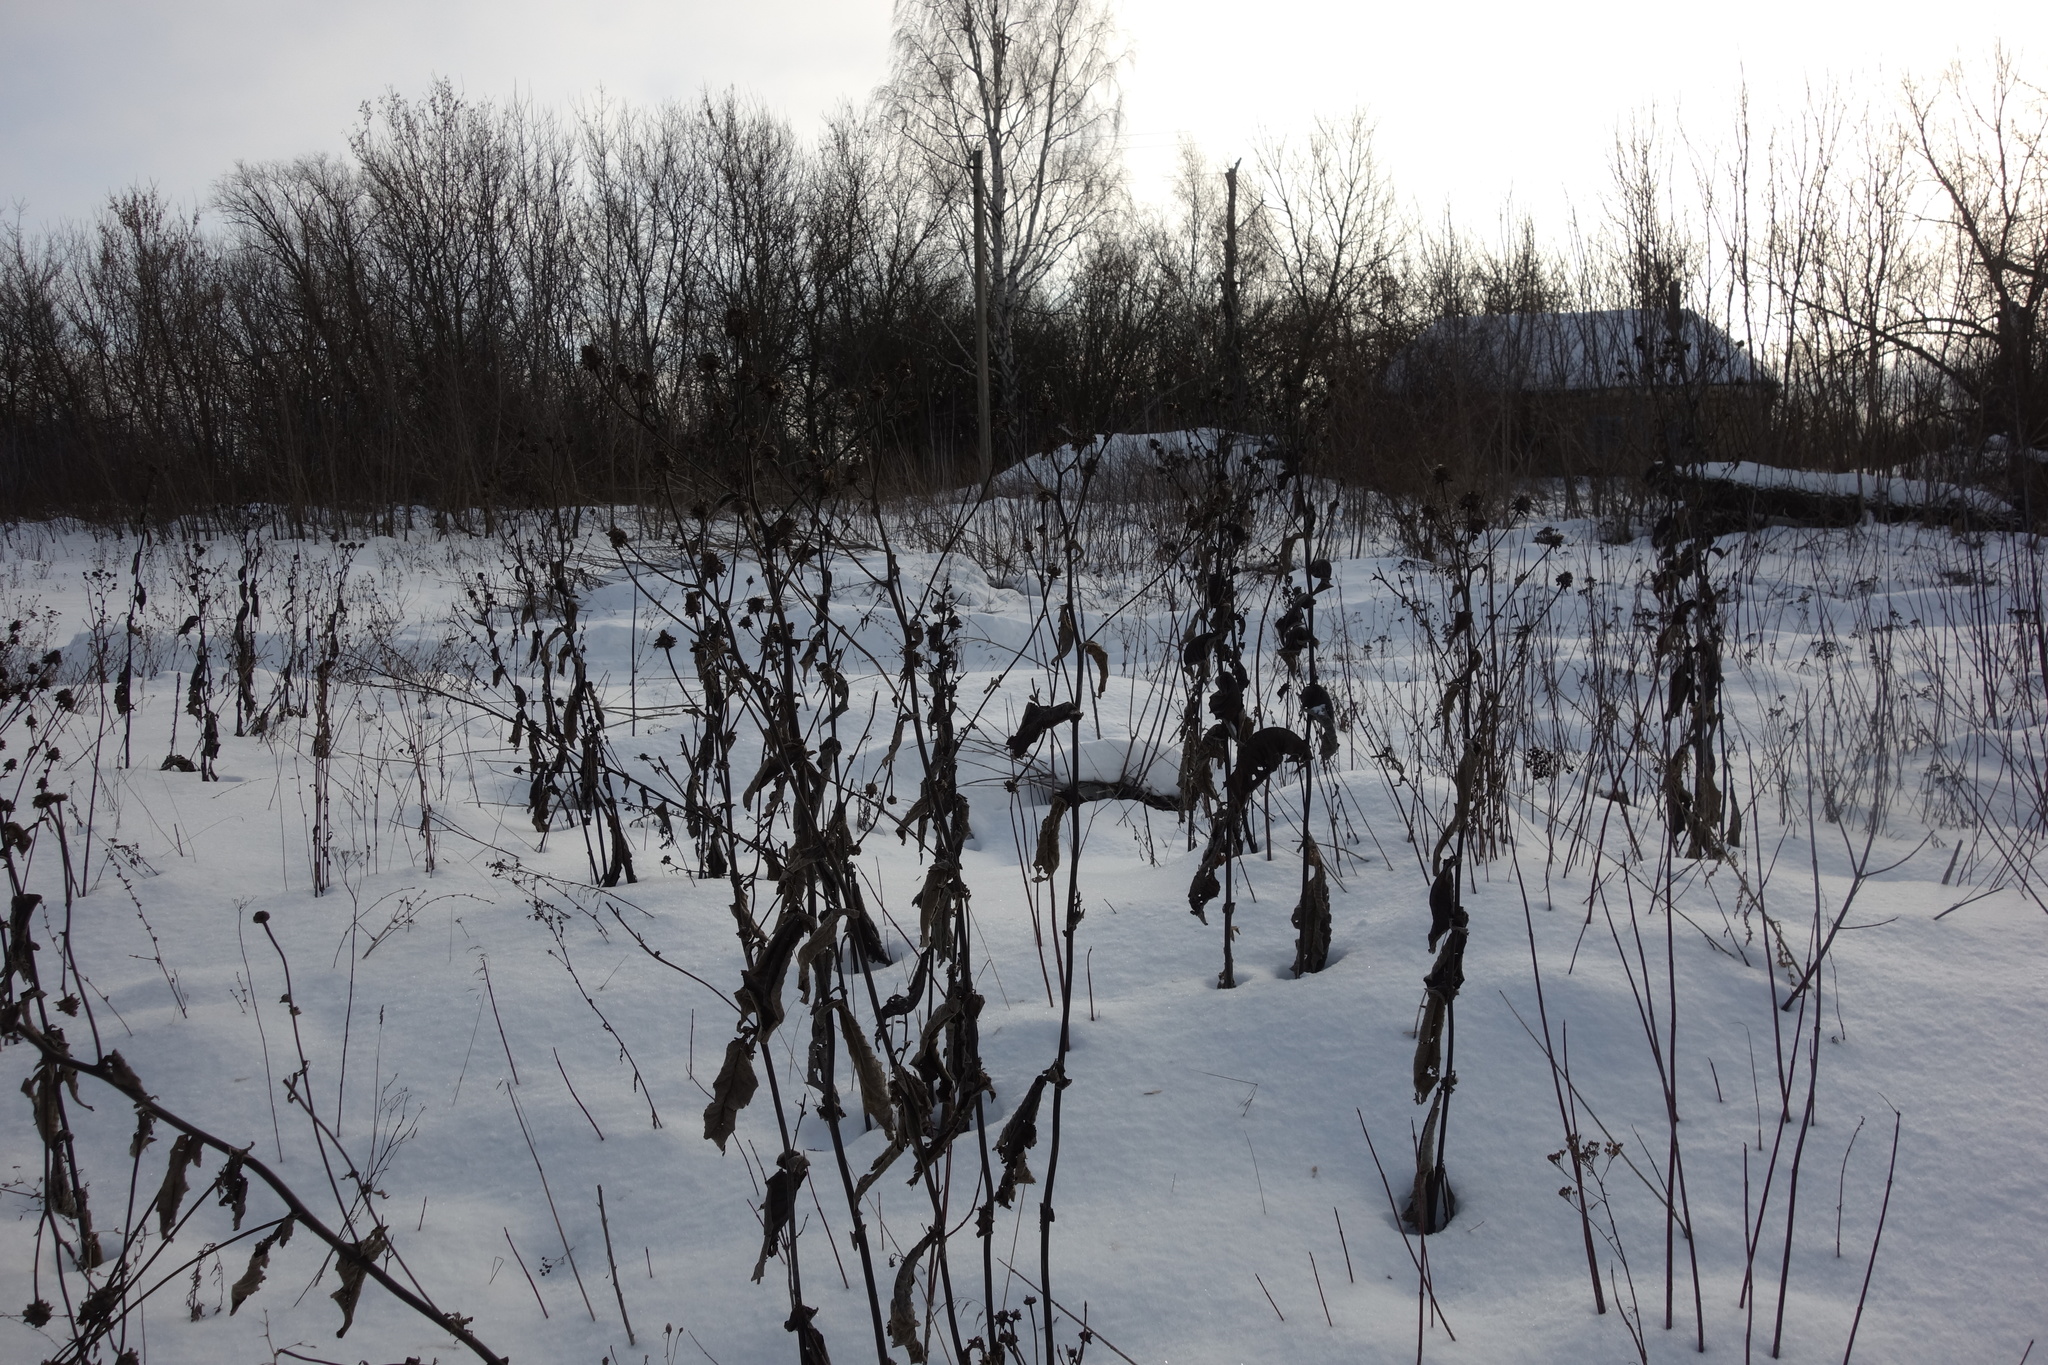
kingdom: Plantae
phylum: Tracheophyta
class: Magnoliopsida
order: Asterales
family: Asteraceae
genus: Inula
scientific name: Inula helenium
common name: Elecampane
